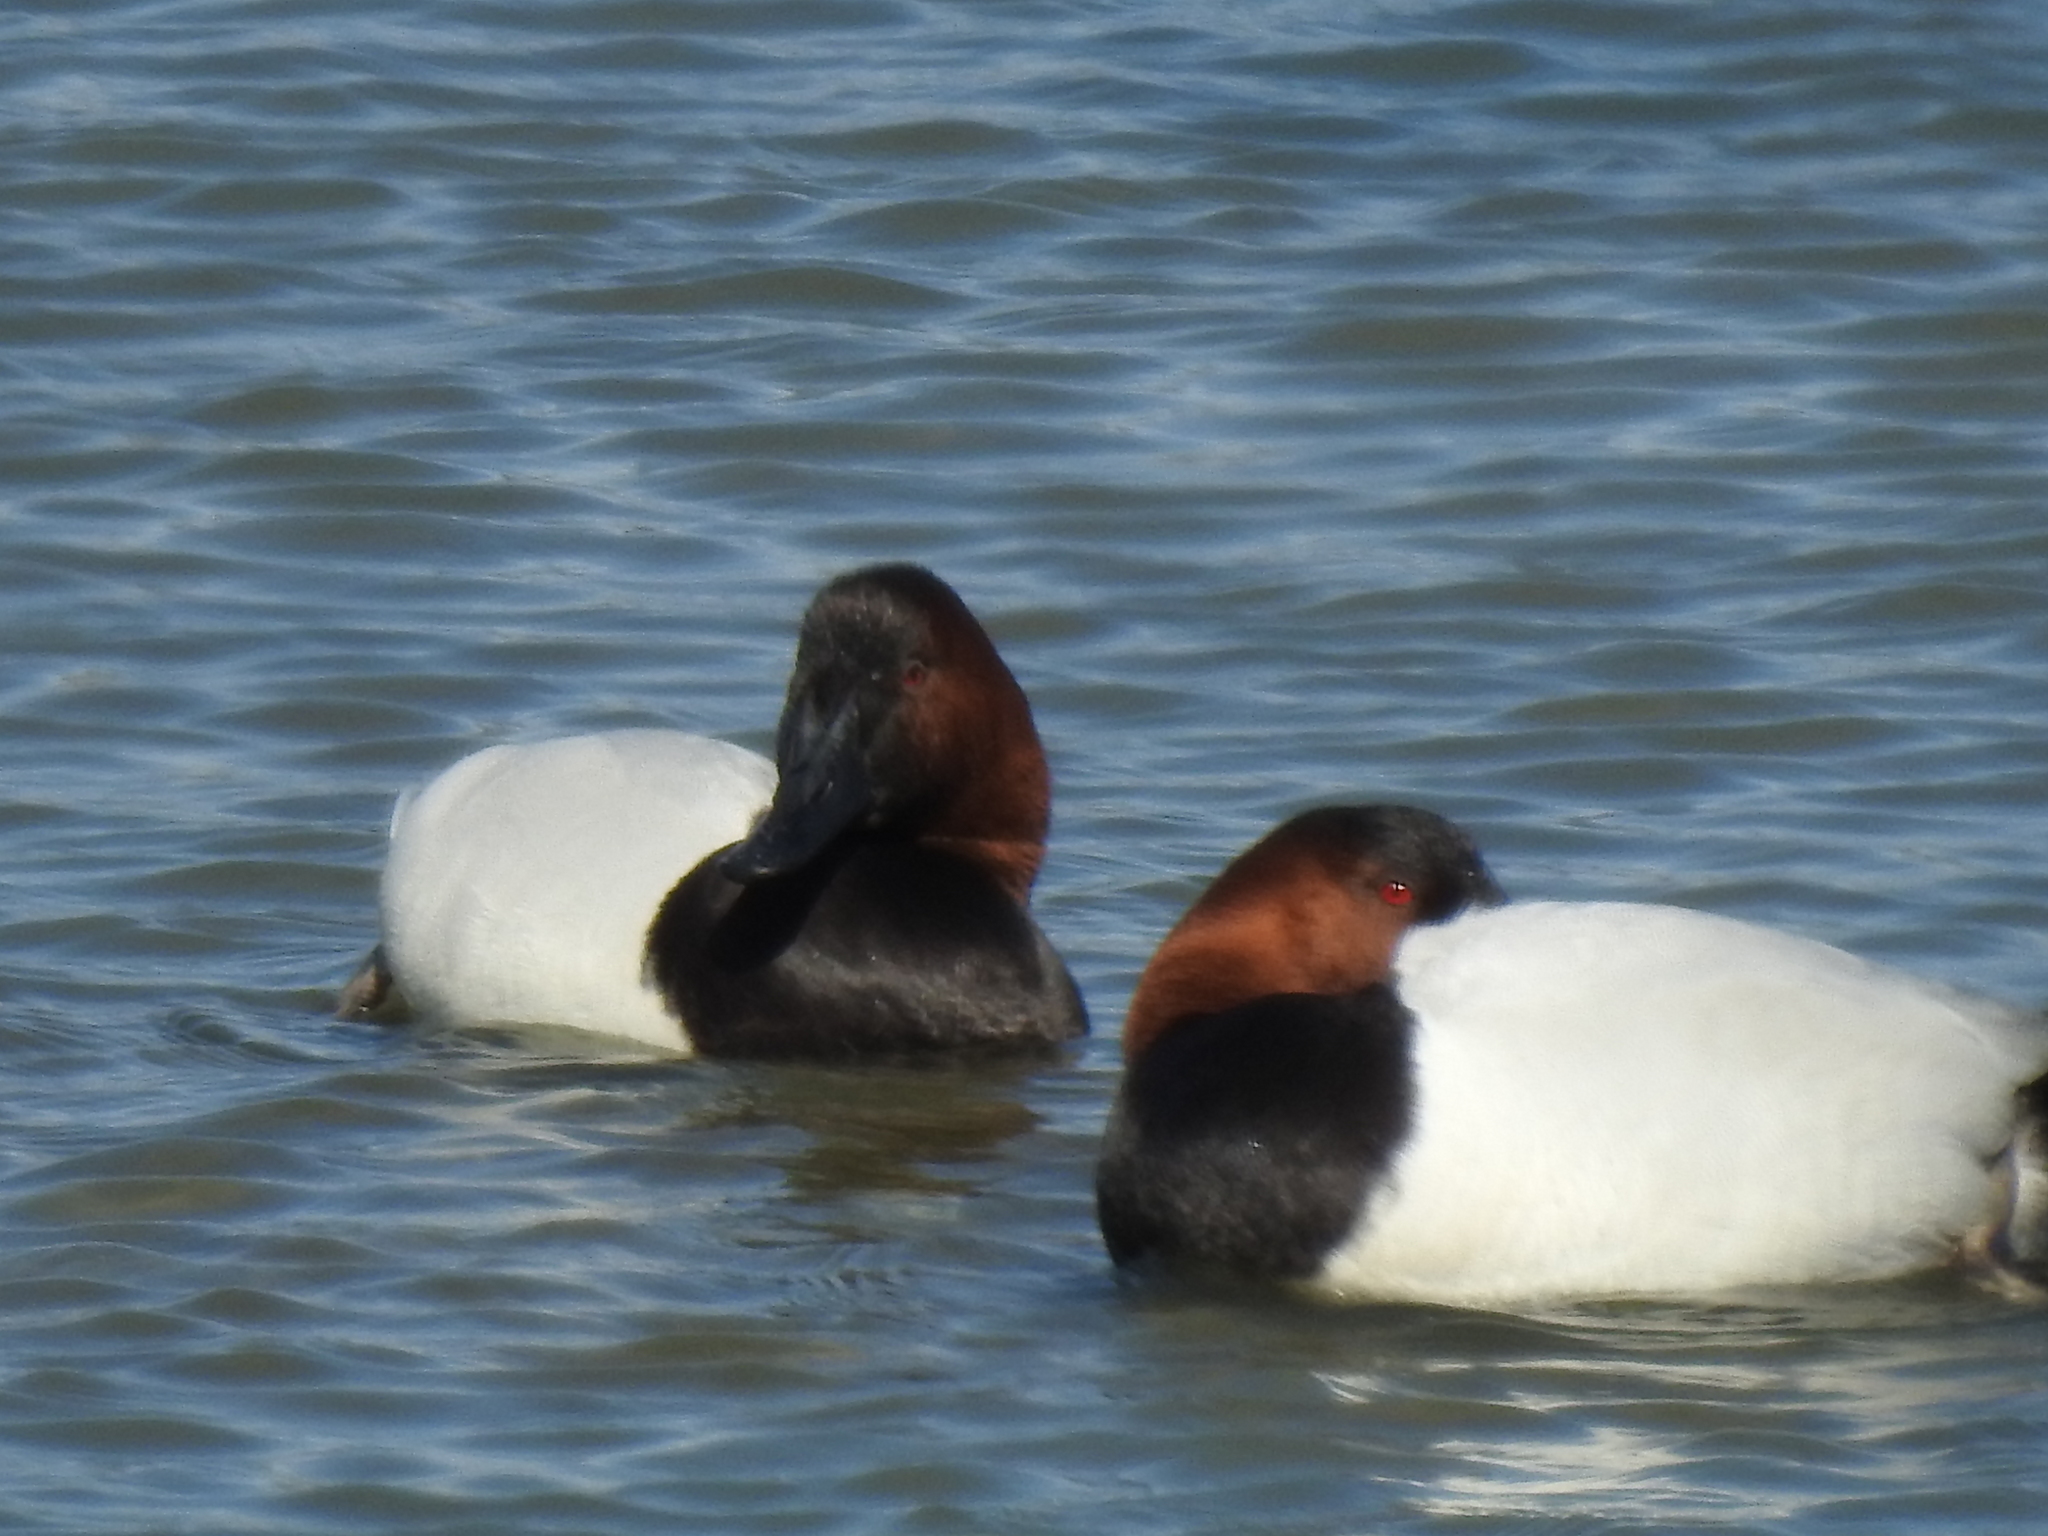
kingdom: Animalia
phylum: Chordata
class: Aves
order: Anseriformes
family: Anatidae
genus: Aythya
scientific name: Aythya valisineria
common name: Canvasback
